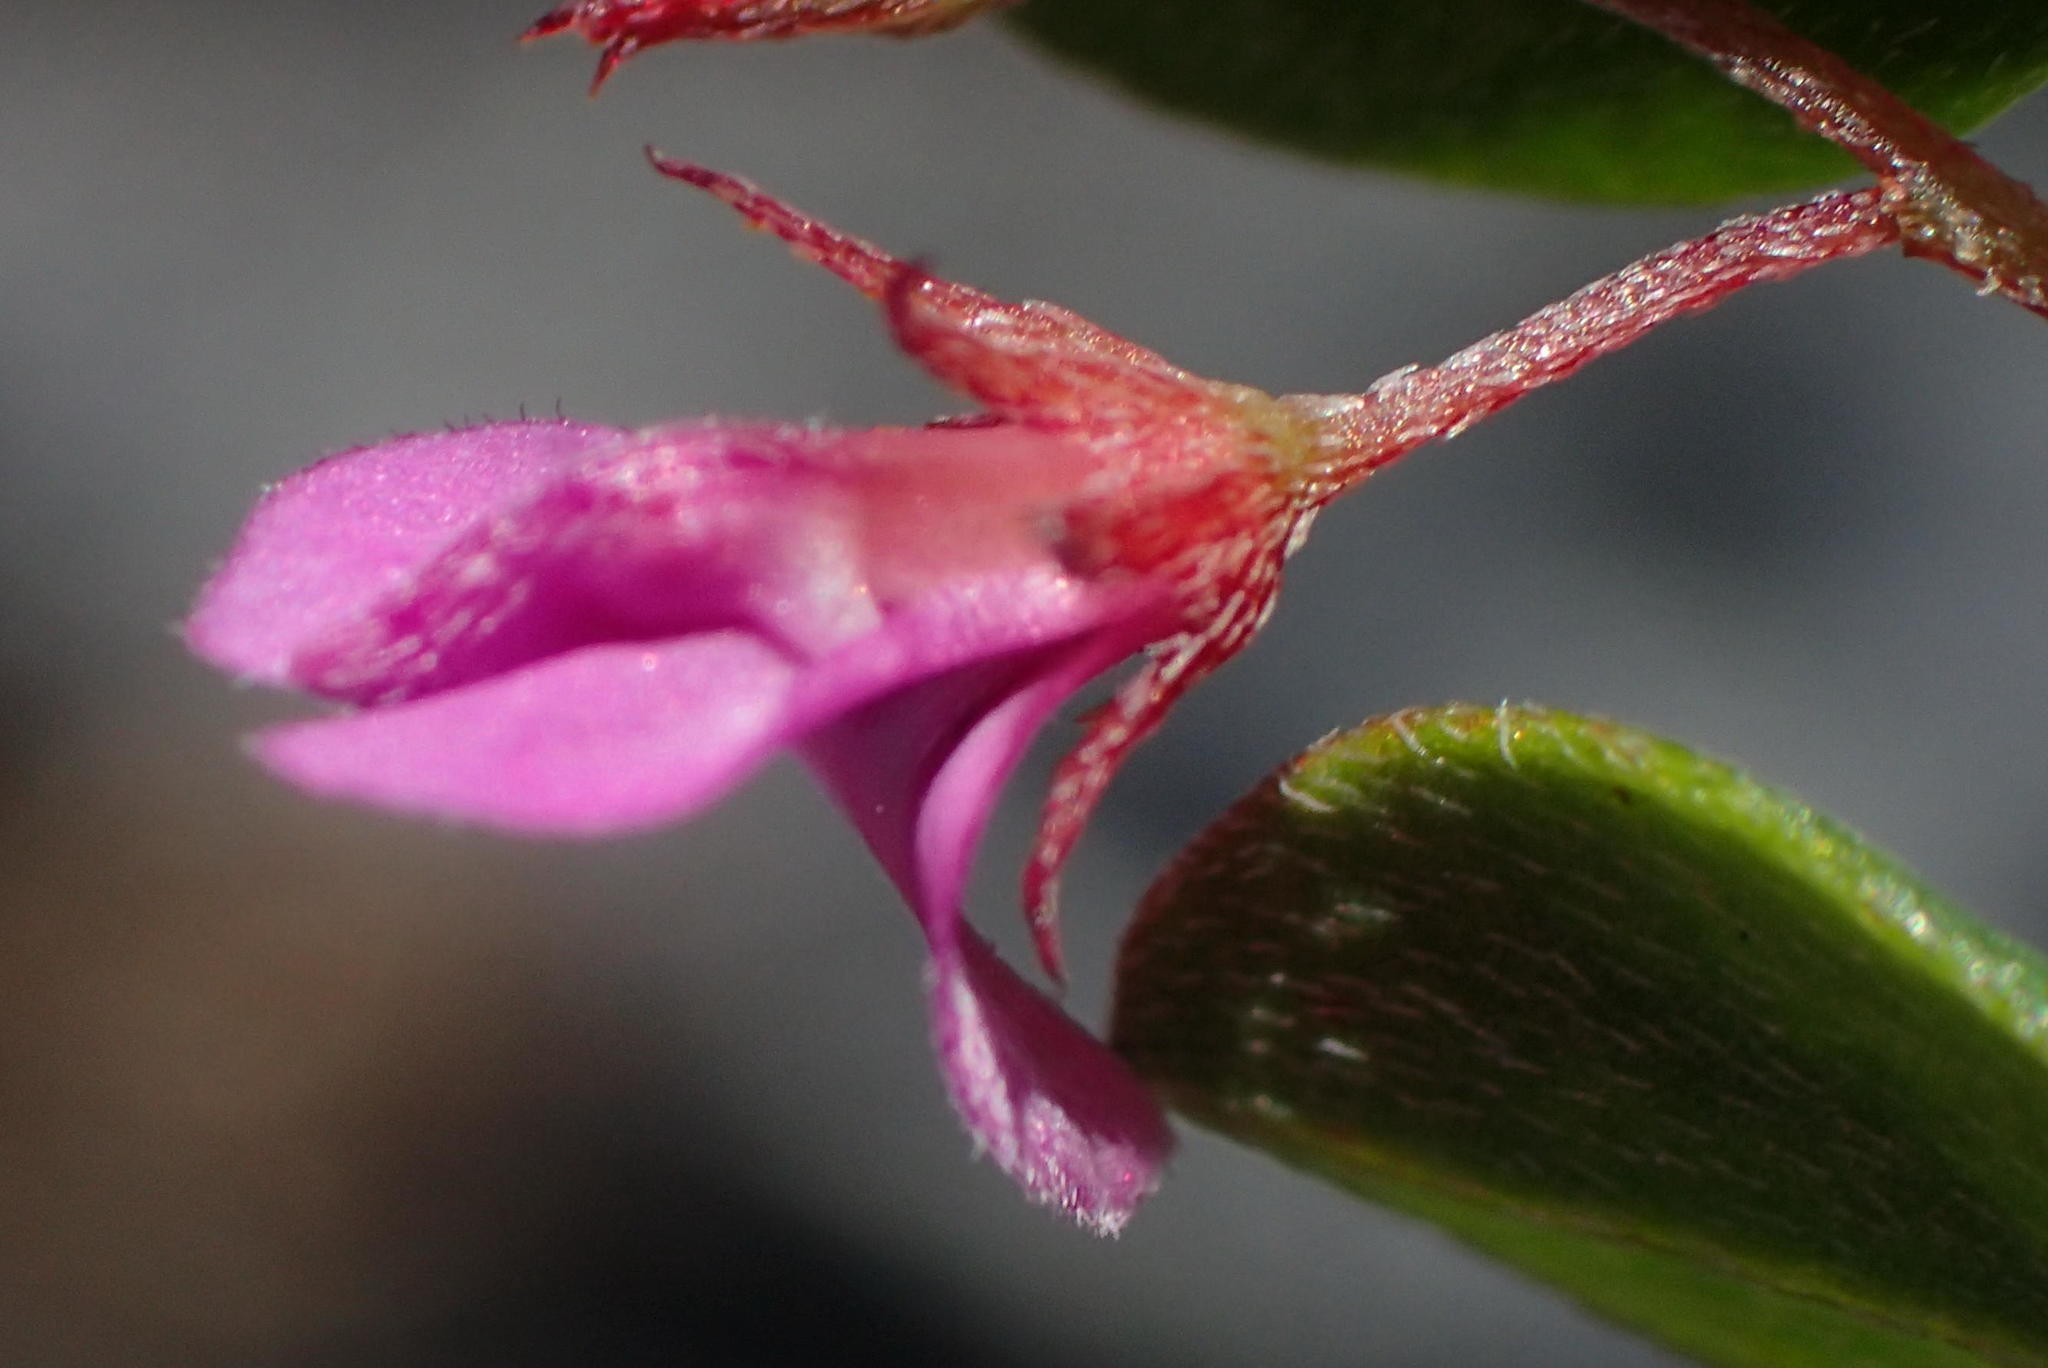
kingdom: Plantae
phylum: Tracheophyta
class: Magnoliopsida
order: Fabales
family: Fabaceae
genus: Indigofera
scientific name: Indigofera sarmentosa
